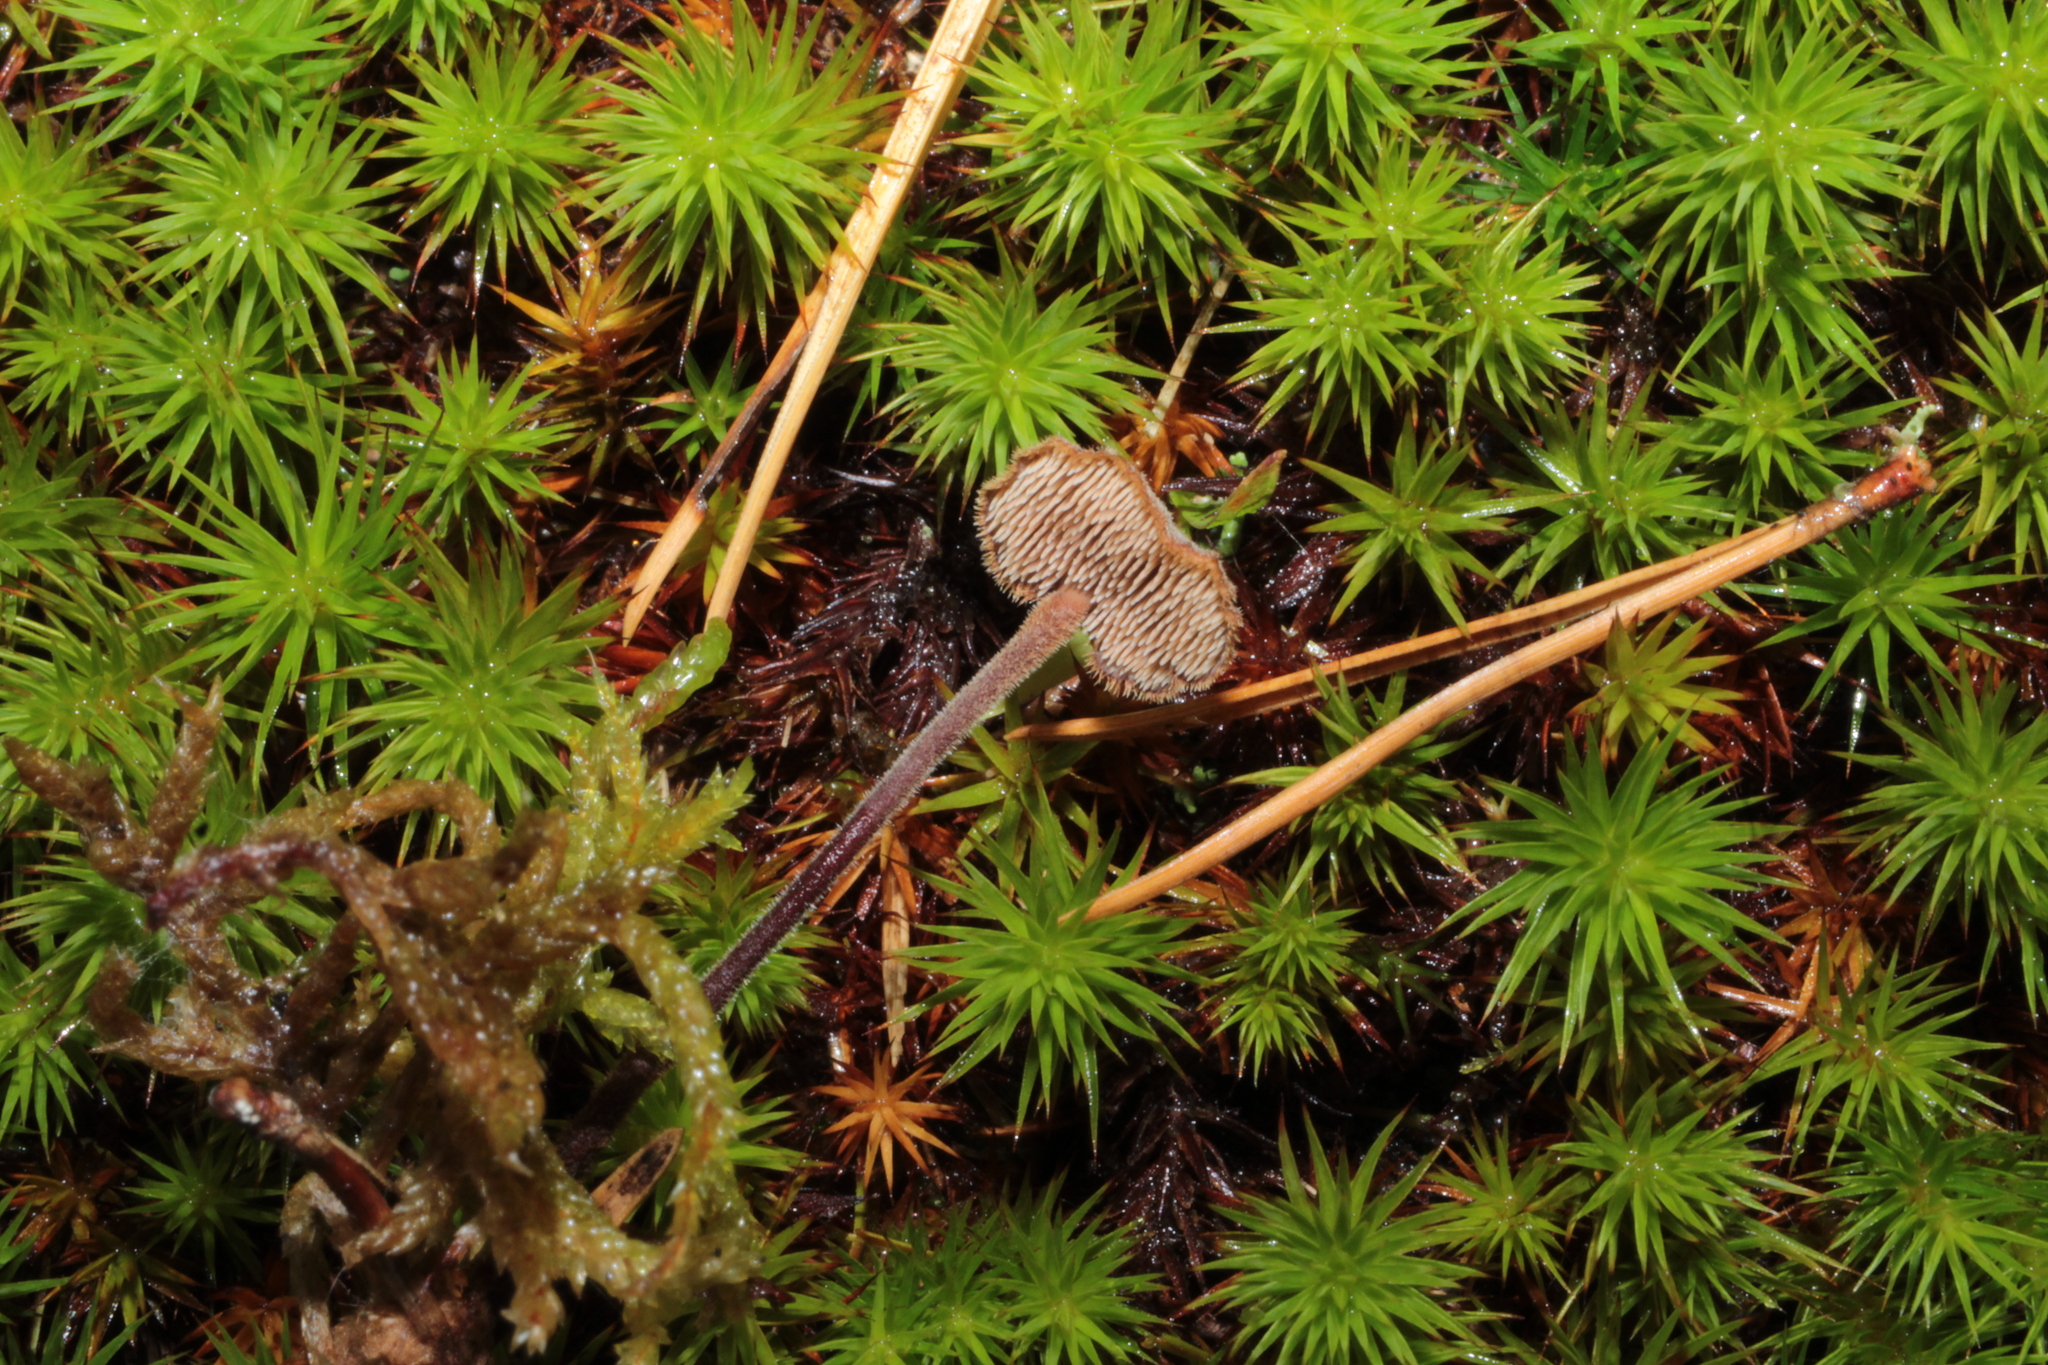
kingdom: Fungi
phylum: Basidiomycota
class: Agaricomycetes
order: Russulales
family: Auriscalpiaceae
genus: Auriscalpium
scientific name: Auriscalpium vulgare
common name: Earpick fungus
